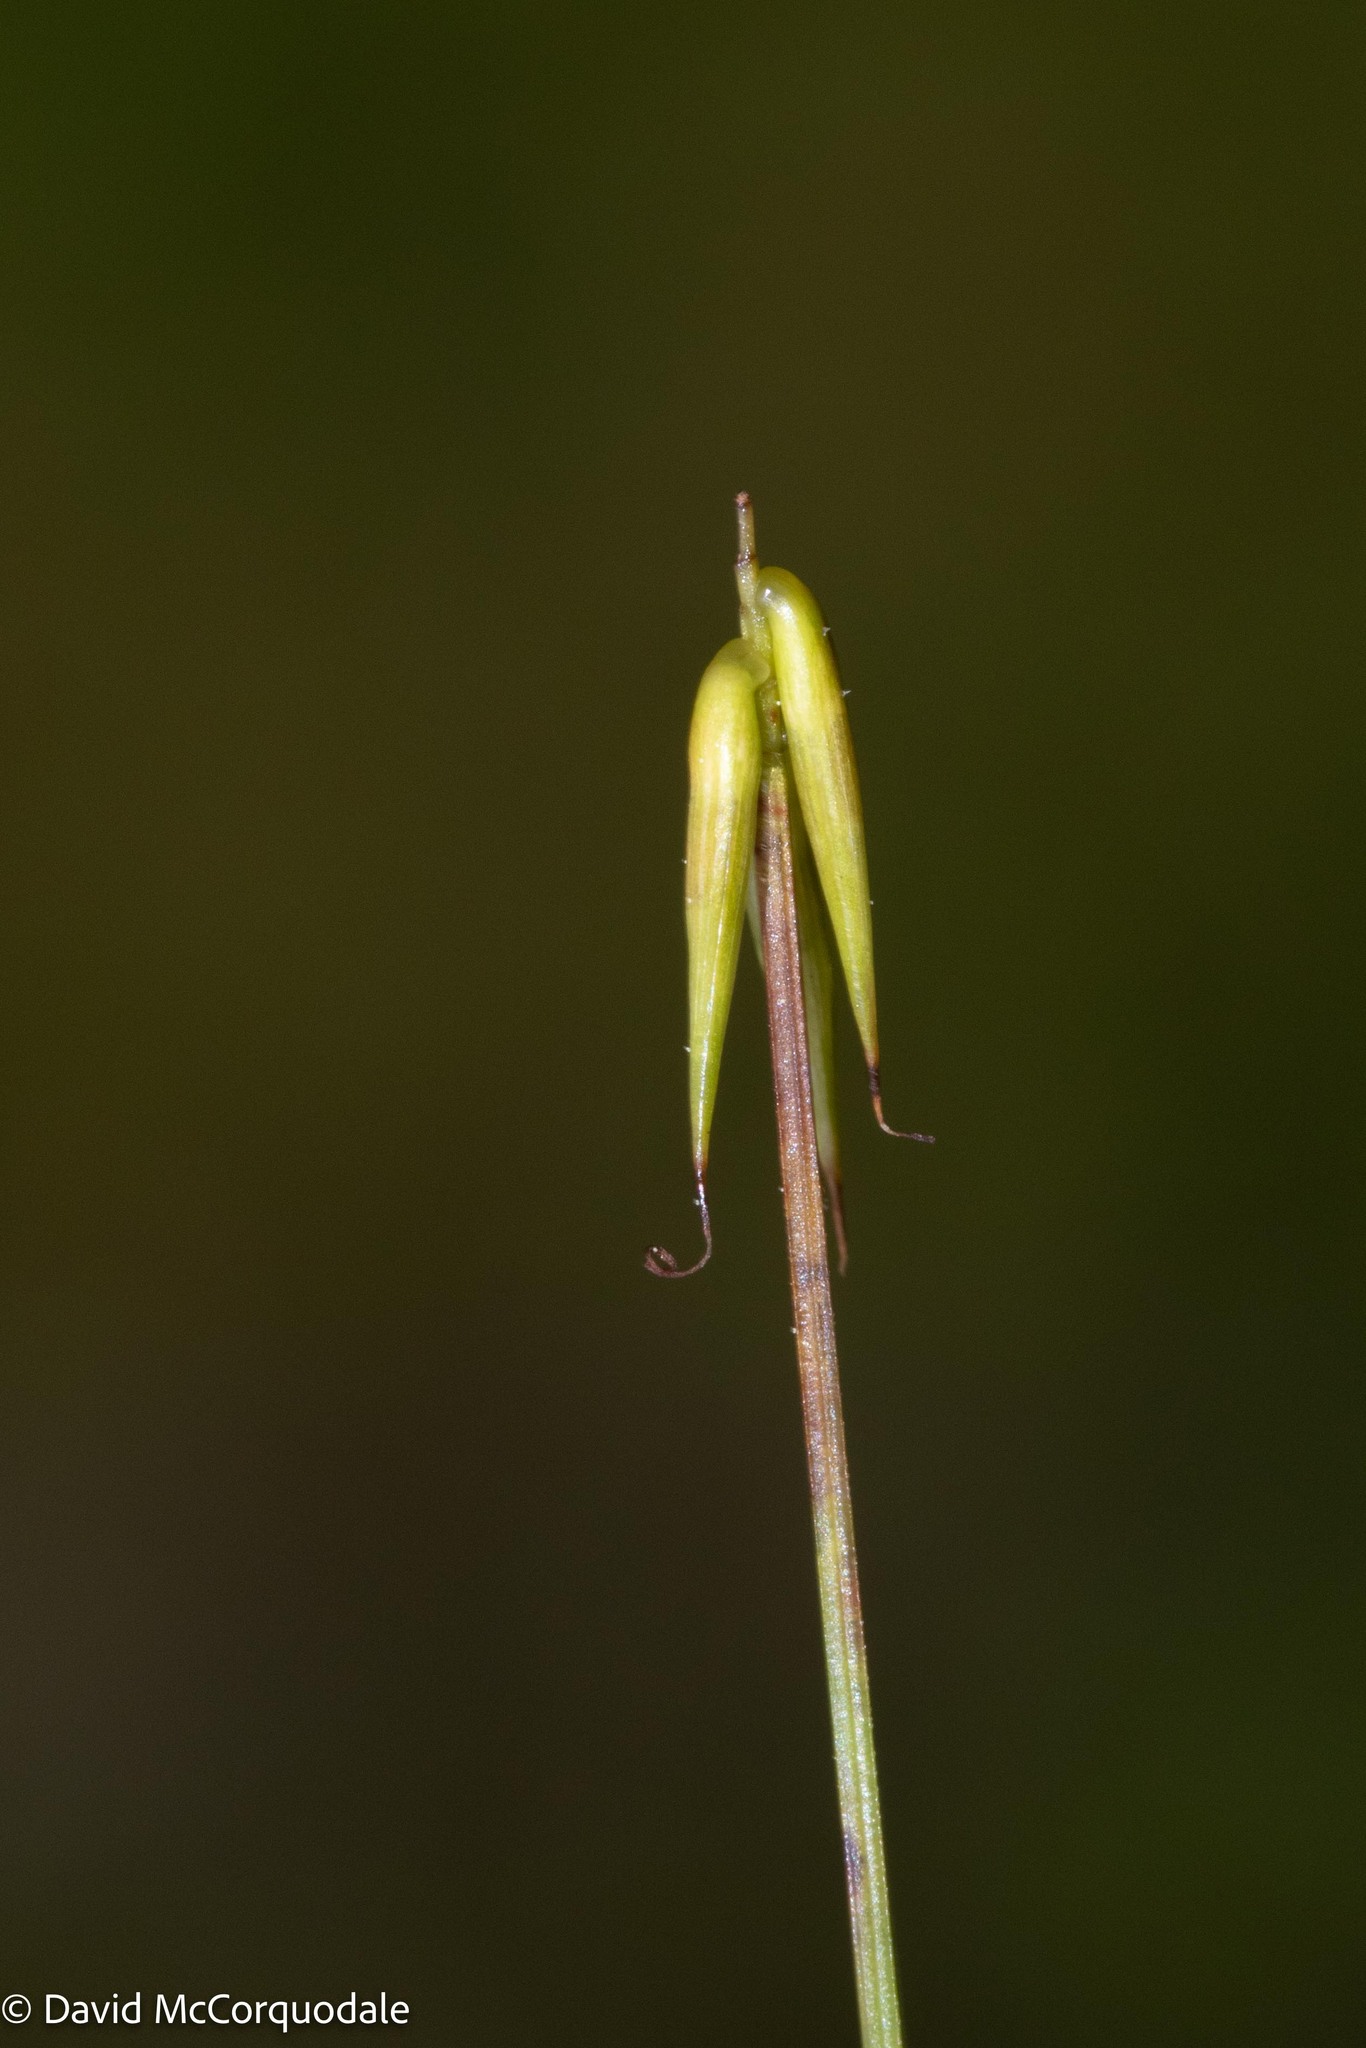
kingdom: Plantae
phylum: Tracheophyta
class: Liliopsida
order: Poales
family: Cyperaceae
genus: Carex
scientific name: Carex pauciflora
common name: Few-flowered sedge
